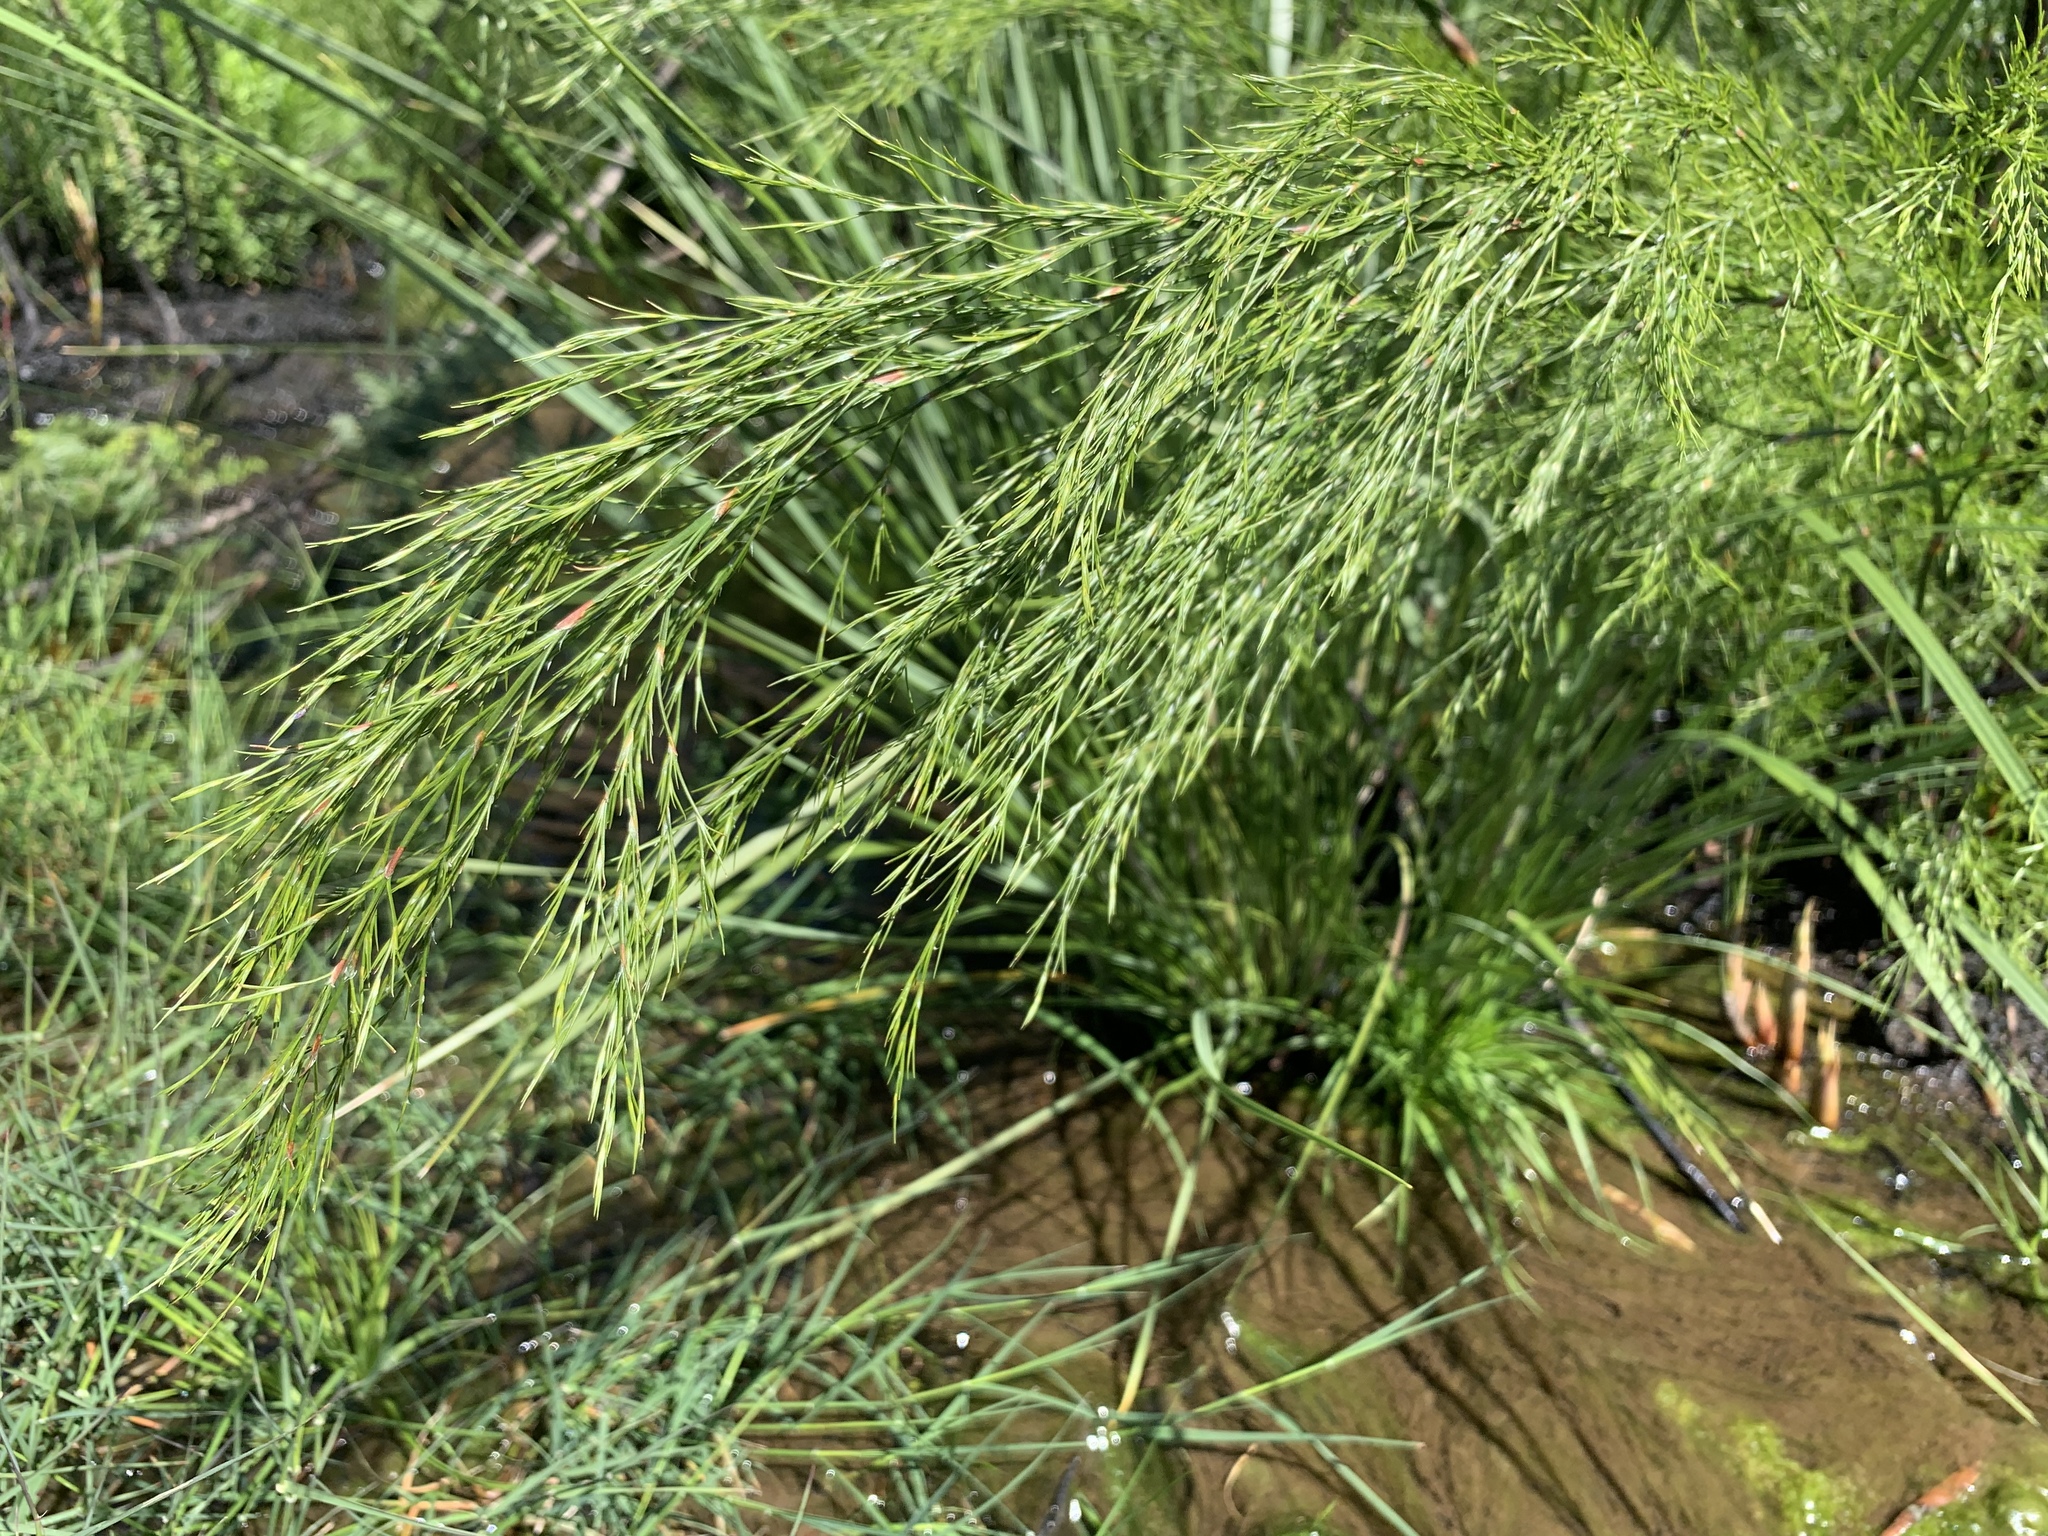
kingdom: Plantae
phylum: Tracheophyta
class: Liliopsida
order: Poales
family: Restionaceae
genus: Restio
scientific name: Restio subverticillatus
